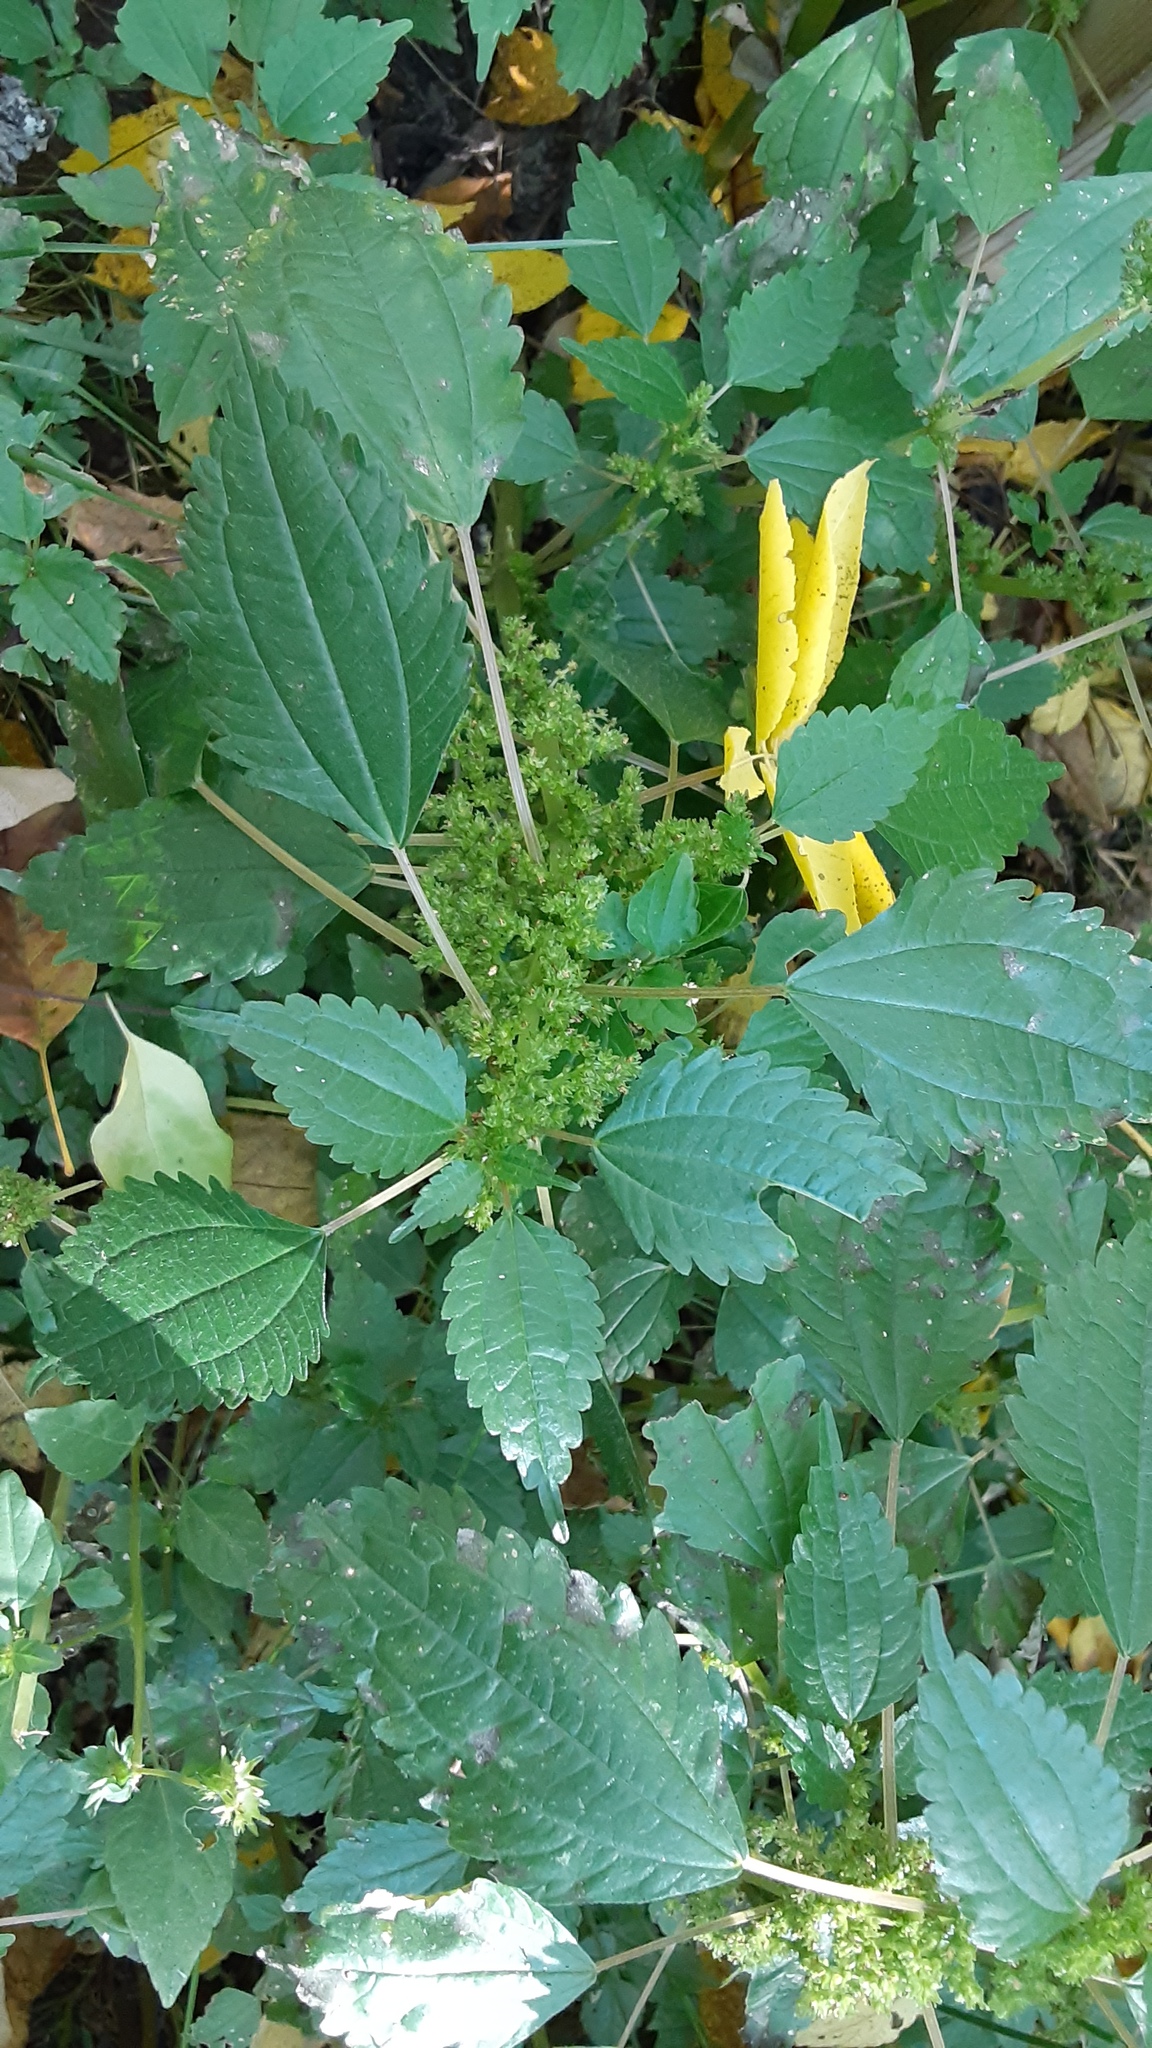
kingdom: Plantae
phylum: Tracheophyta
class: Magnoliopsida
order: Rosales
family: Urticaceae
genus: Pilea
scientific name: Pilea pumila
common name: Clearweed
